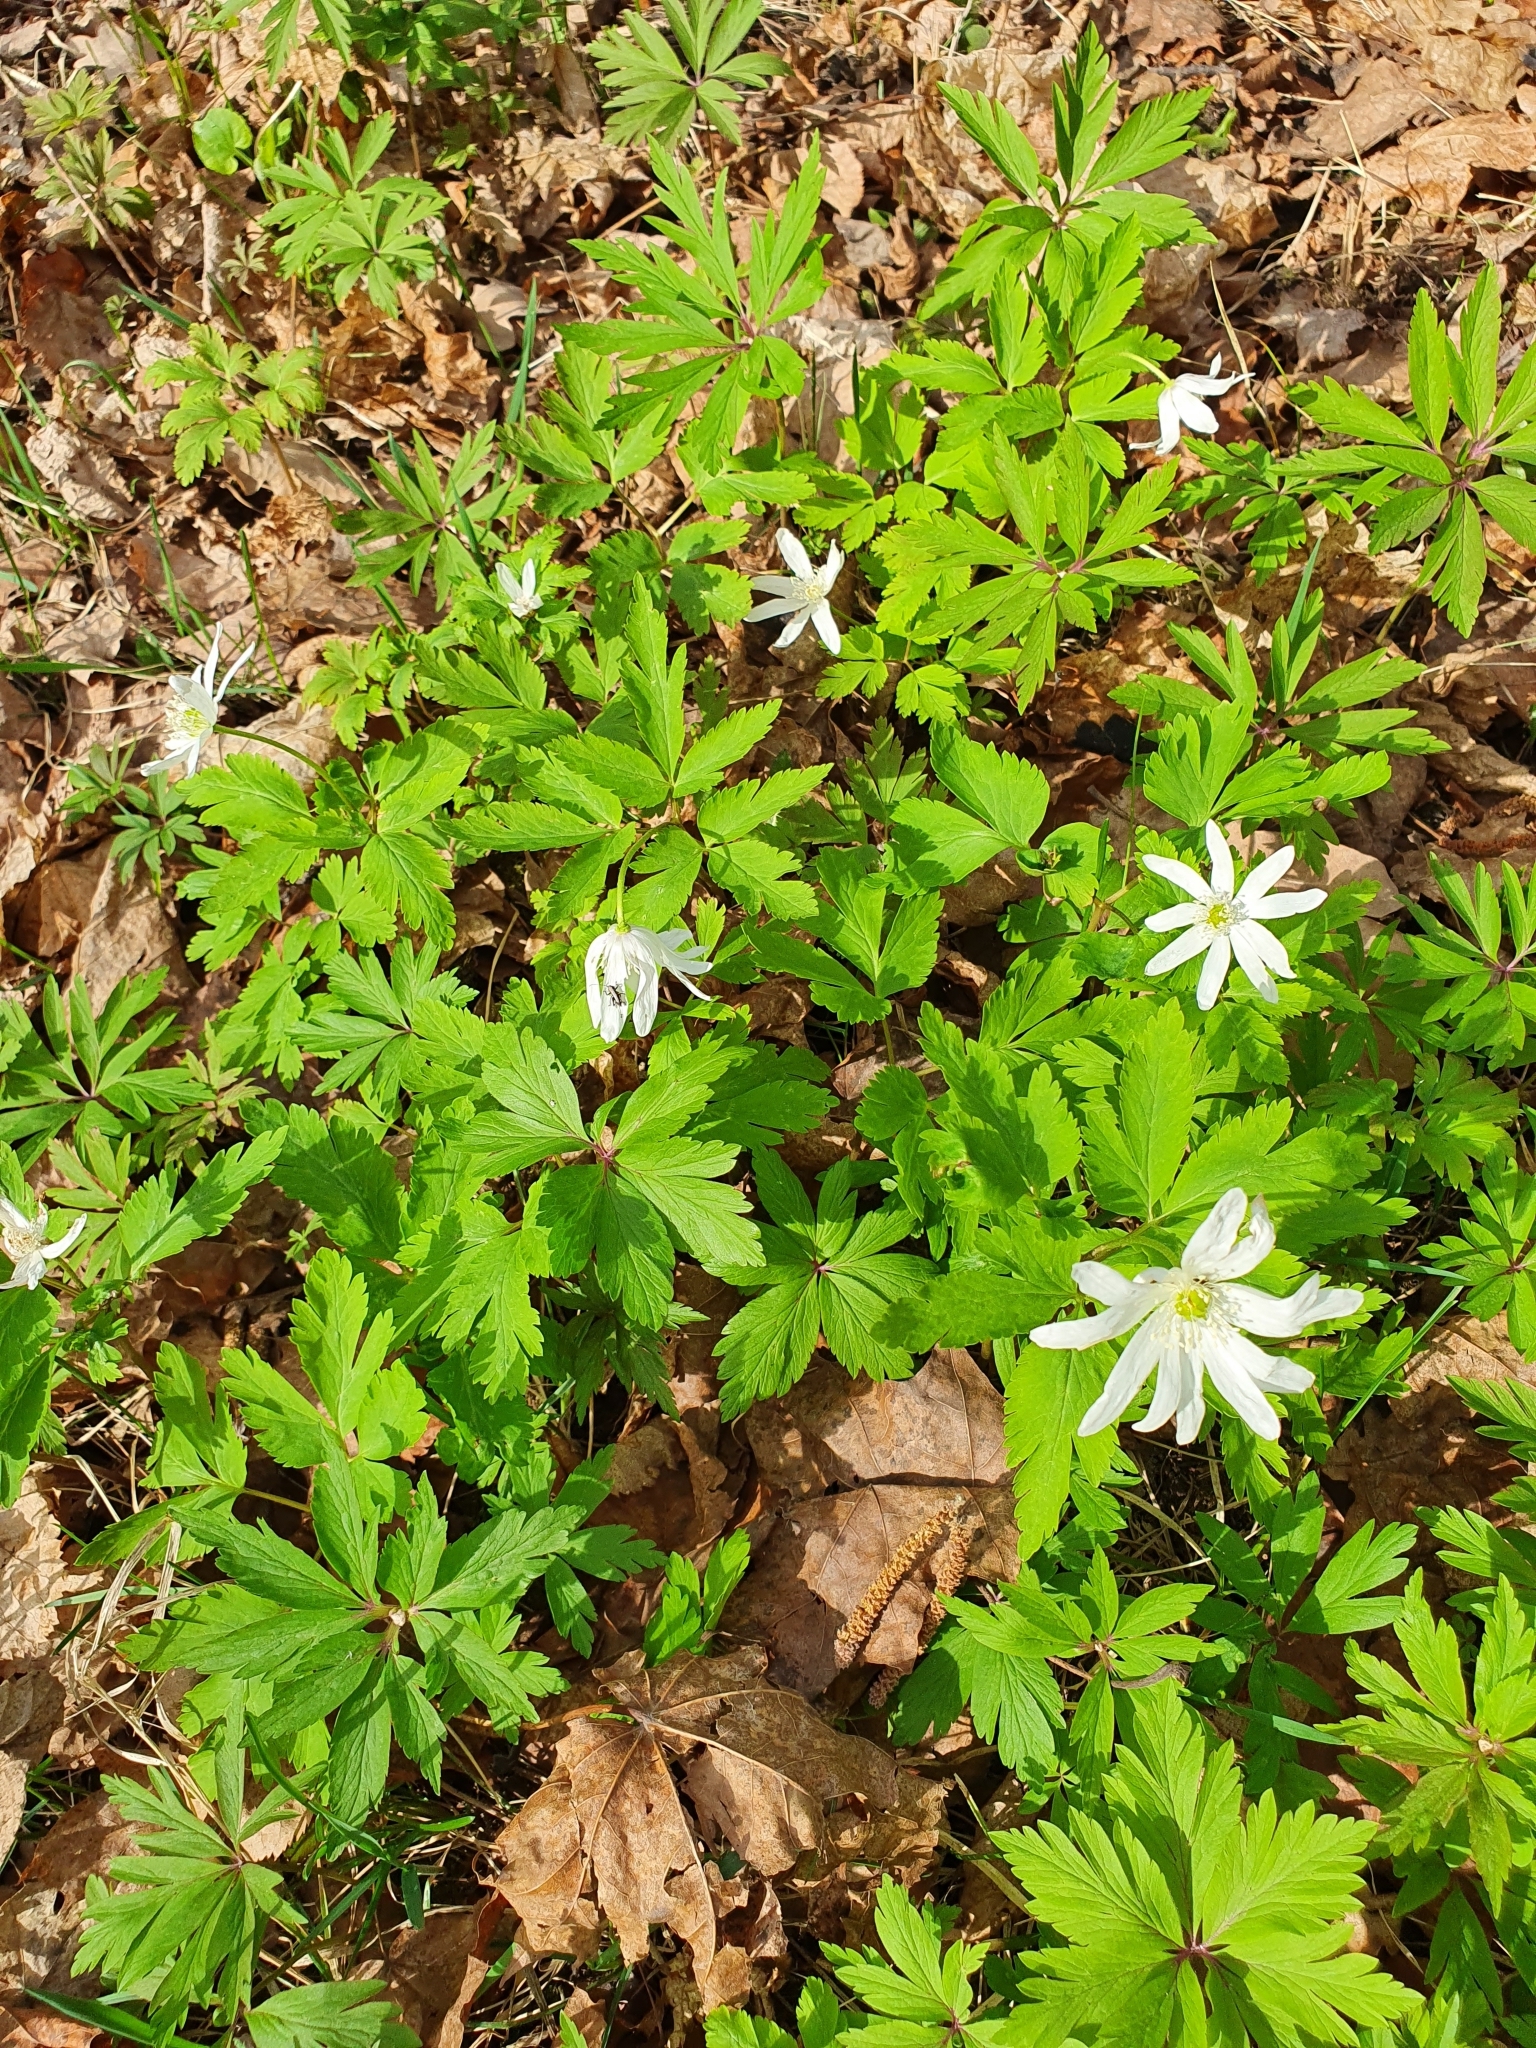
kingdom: Plantae
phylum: Tracheophyta
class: Magnoliopsida
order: Ranunculales
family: Ranunculaceae
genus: Anemone
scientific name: Anemone altaica
